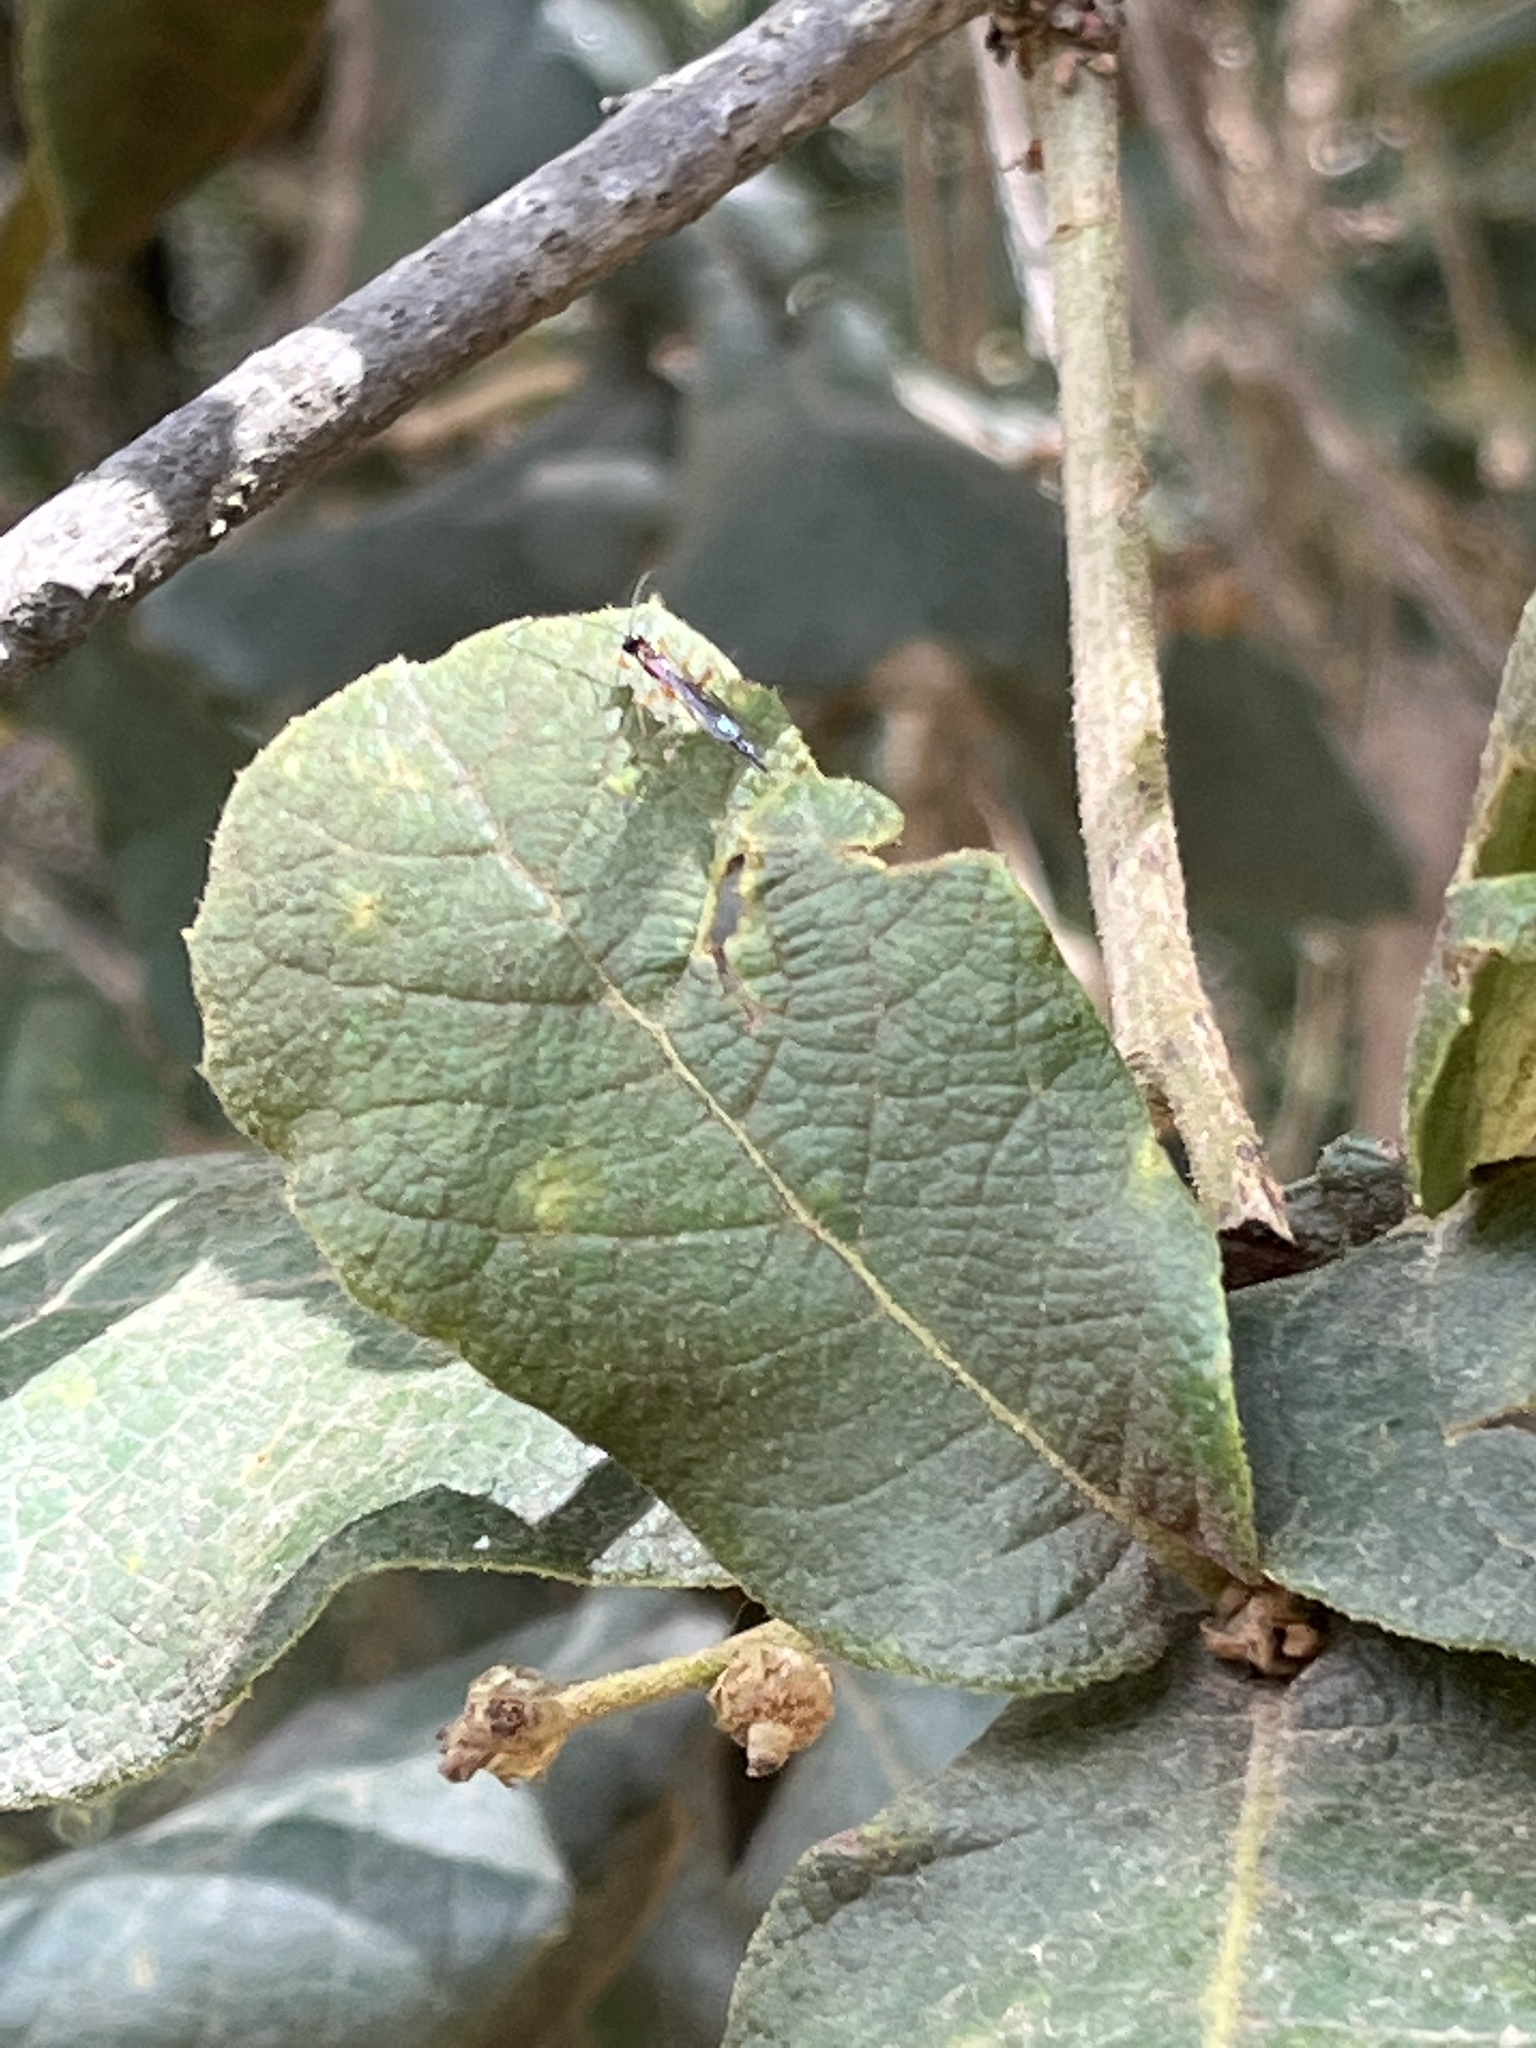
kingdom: Plantae
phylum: Tracheophyta
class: Magnoliopsida
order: Fagales
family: Fagaceae
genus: Quercus
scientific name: Quercus rugosa
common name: Netleaf oak
